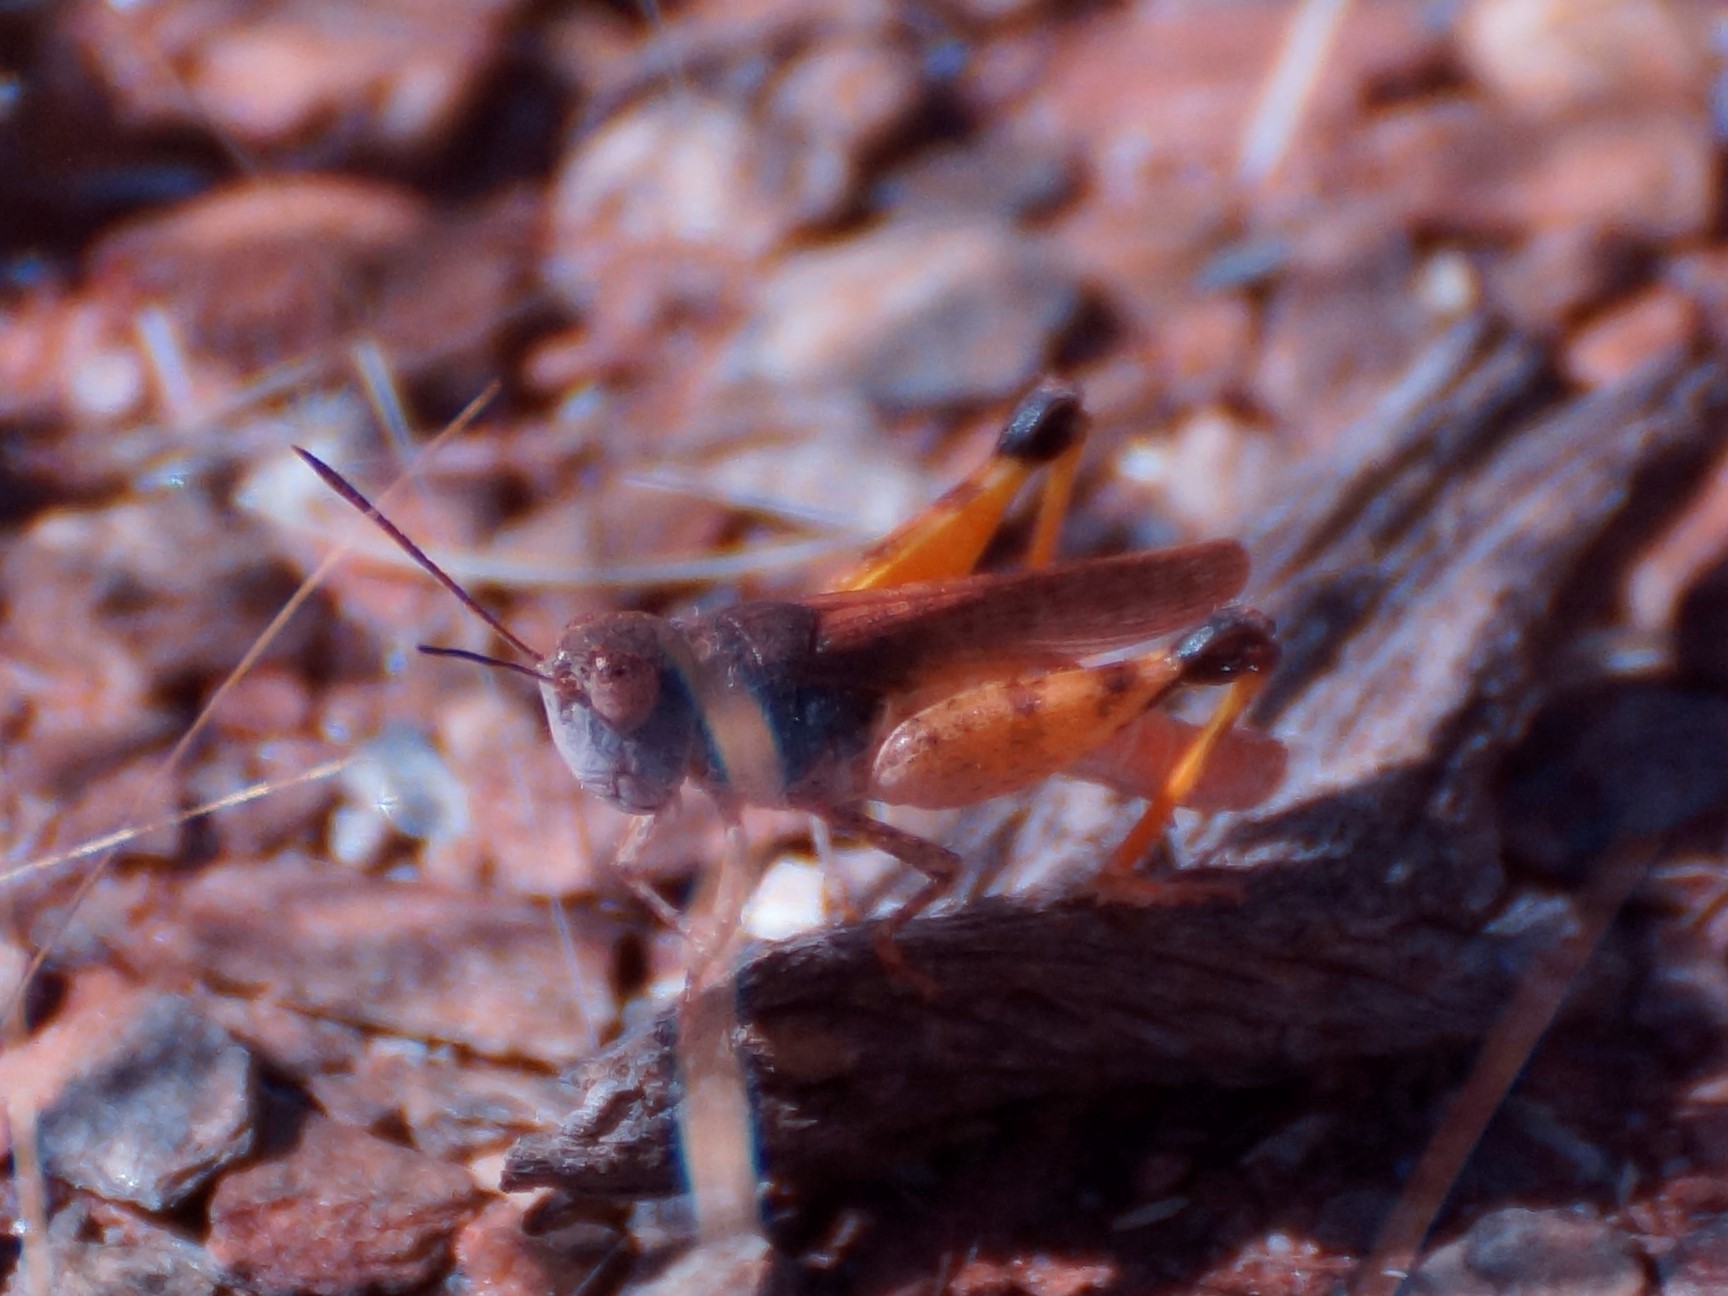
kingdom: Animalia
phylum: Arthropoda
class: Insecta
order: Orthoptera
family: Acrididae
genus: Macrazelota
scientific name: Macrazelota cervina
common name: Common pig-head
